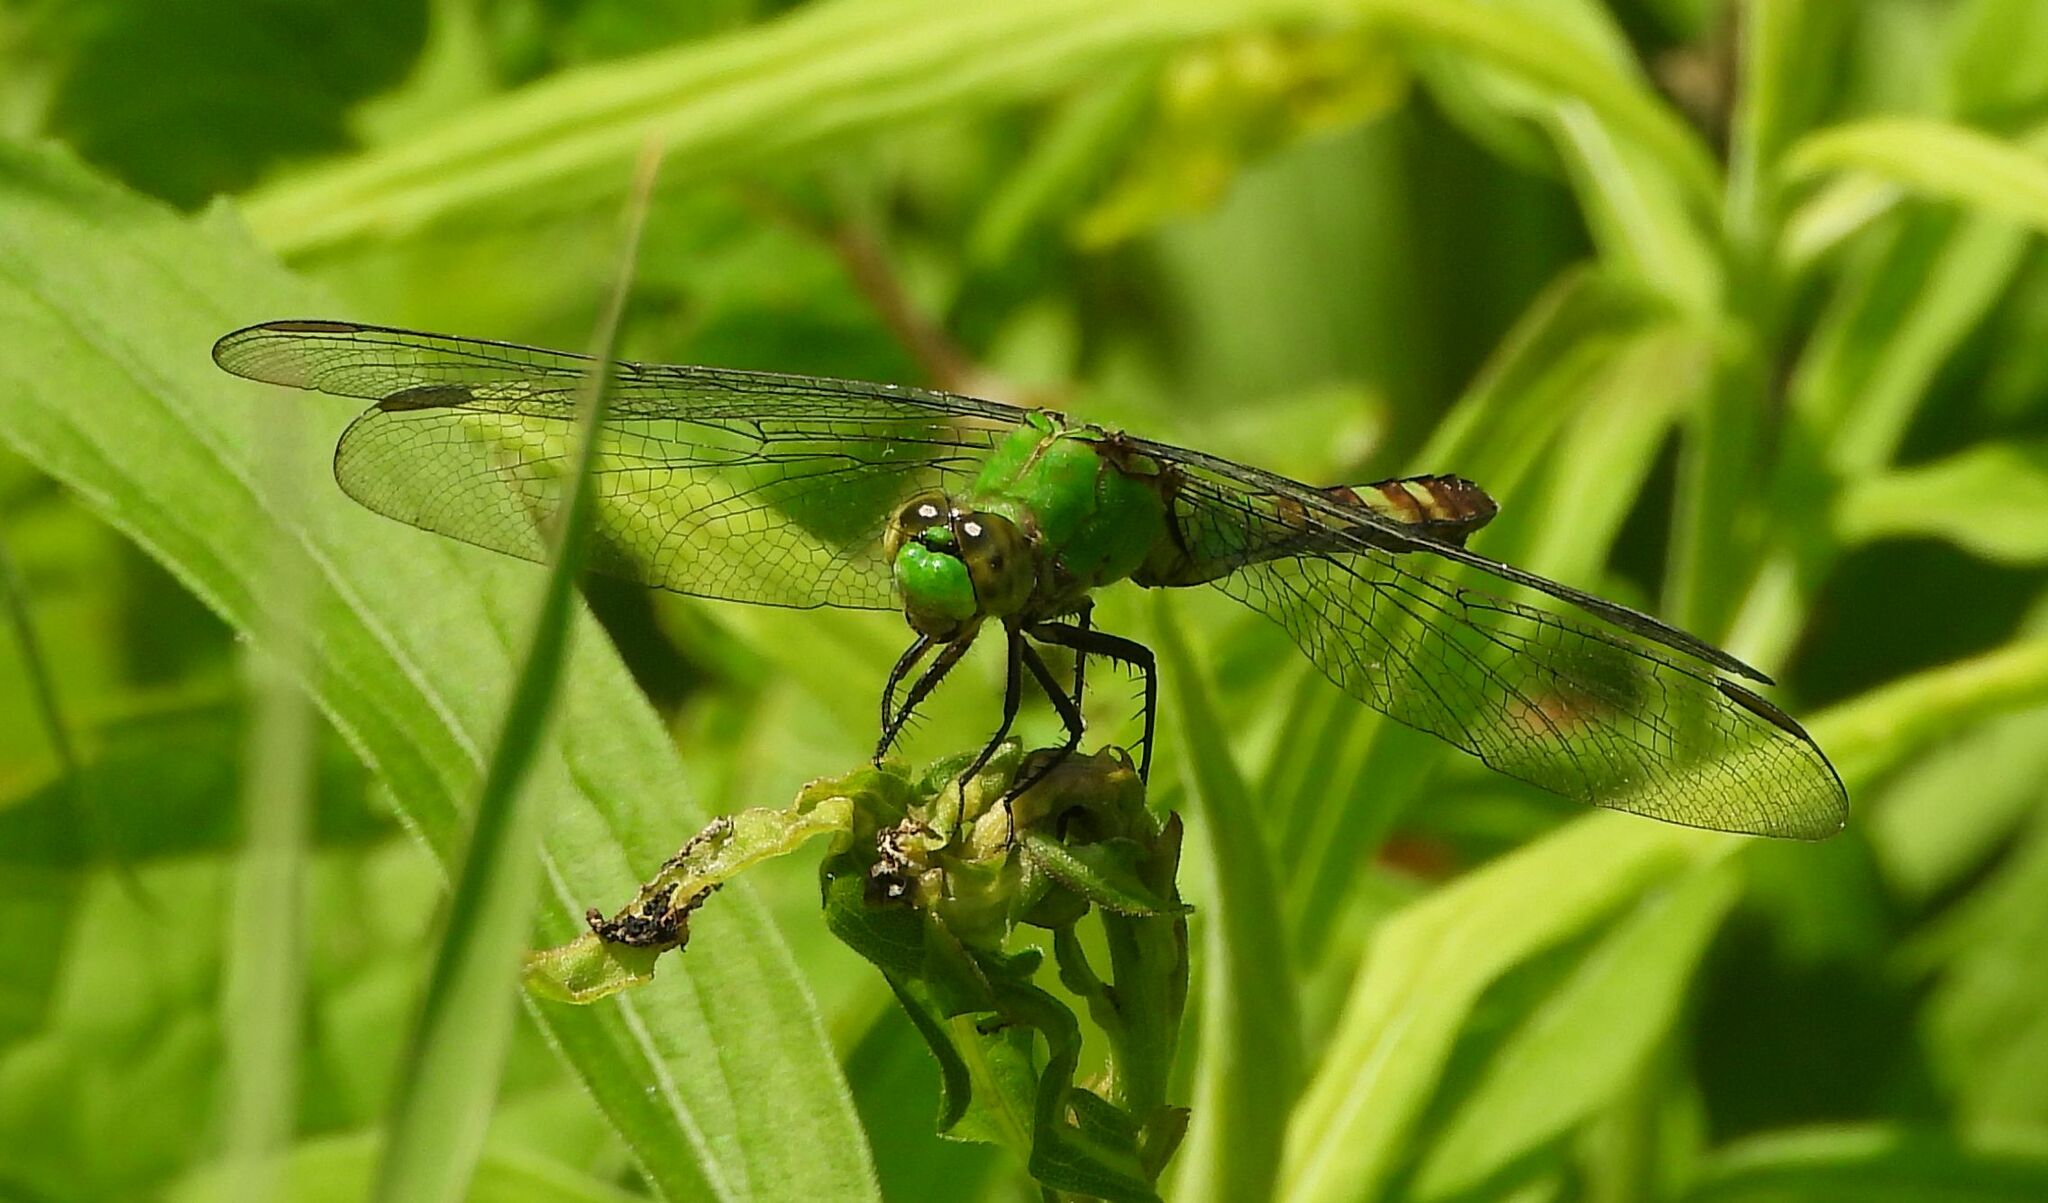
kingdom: Animalia
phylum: Arthropoda
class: Insecta
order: Odonata
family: Libellulidae
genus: Erythemis
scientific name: Erythemis simplicicollis
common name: Eastern pondhawk
